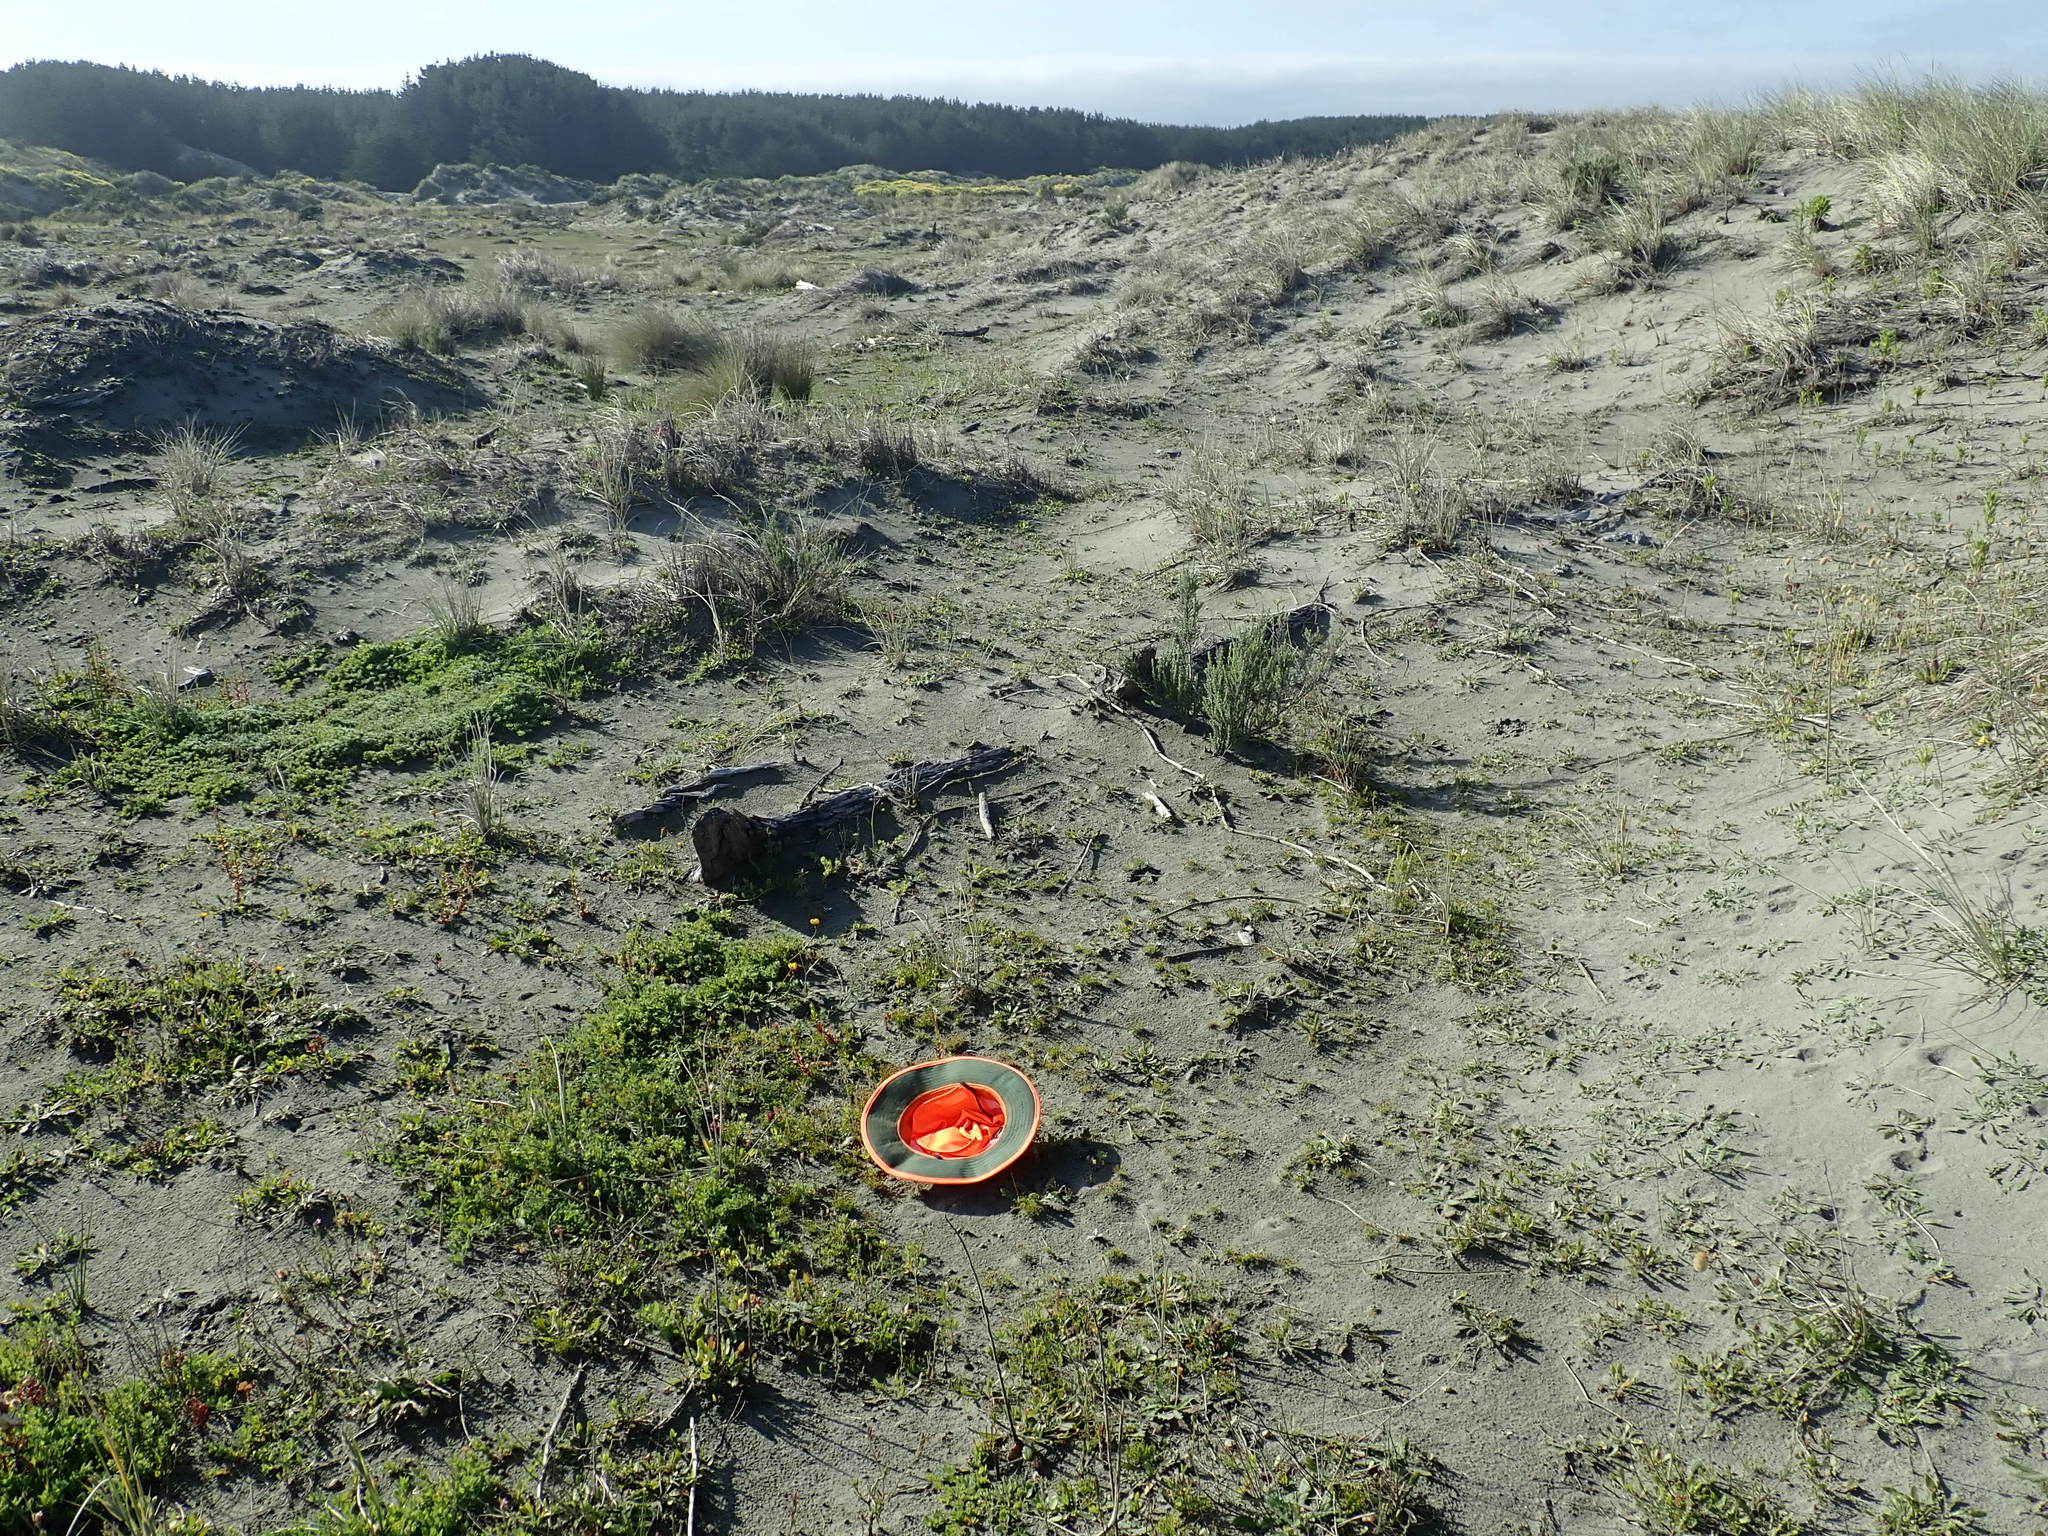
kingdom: Plantae
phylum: Tracheophyta
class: Liliopsida
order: Poales
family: Cyperaceae
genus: Isolepis
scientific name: Isolepis cernua
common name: Slender club-rush
